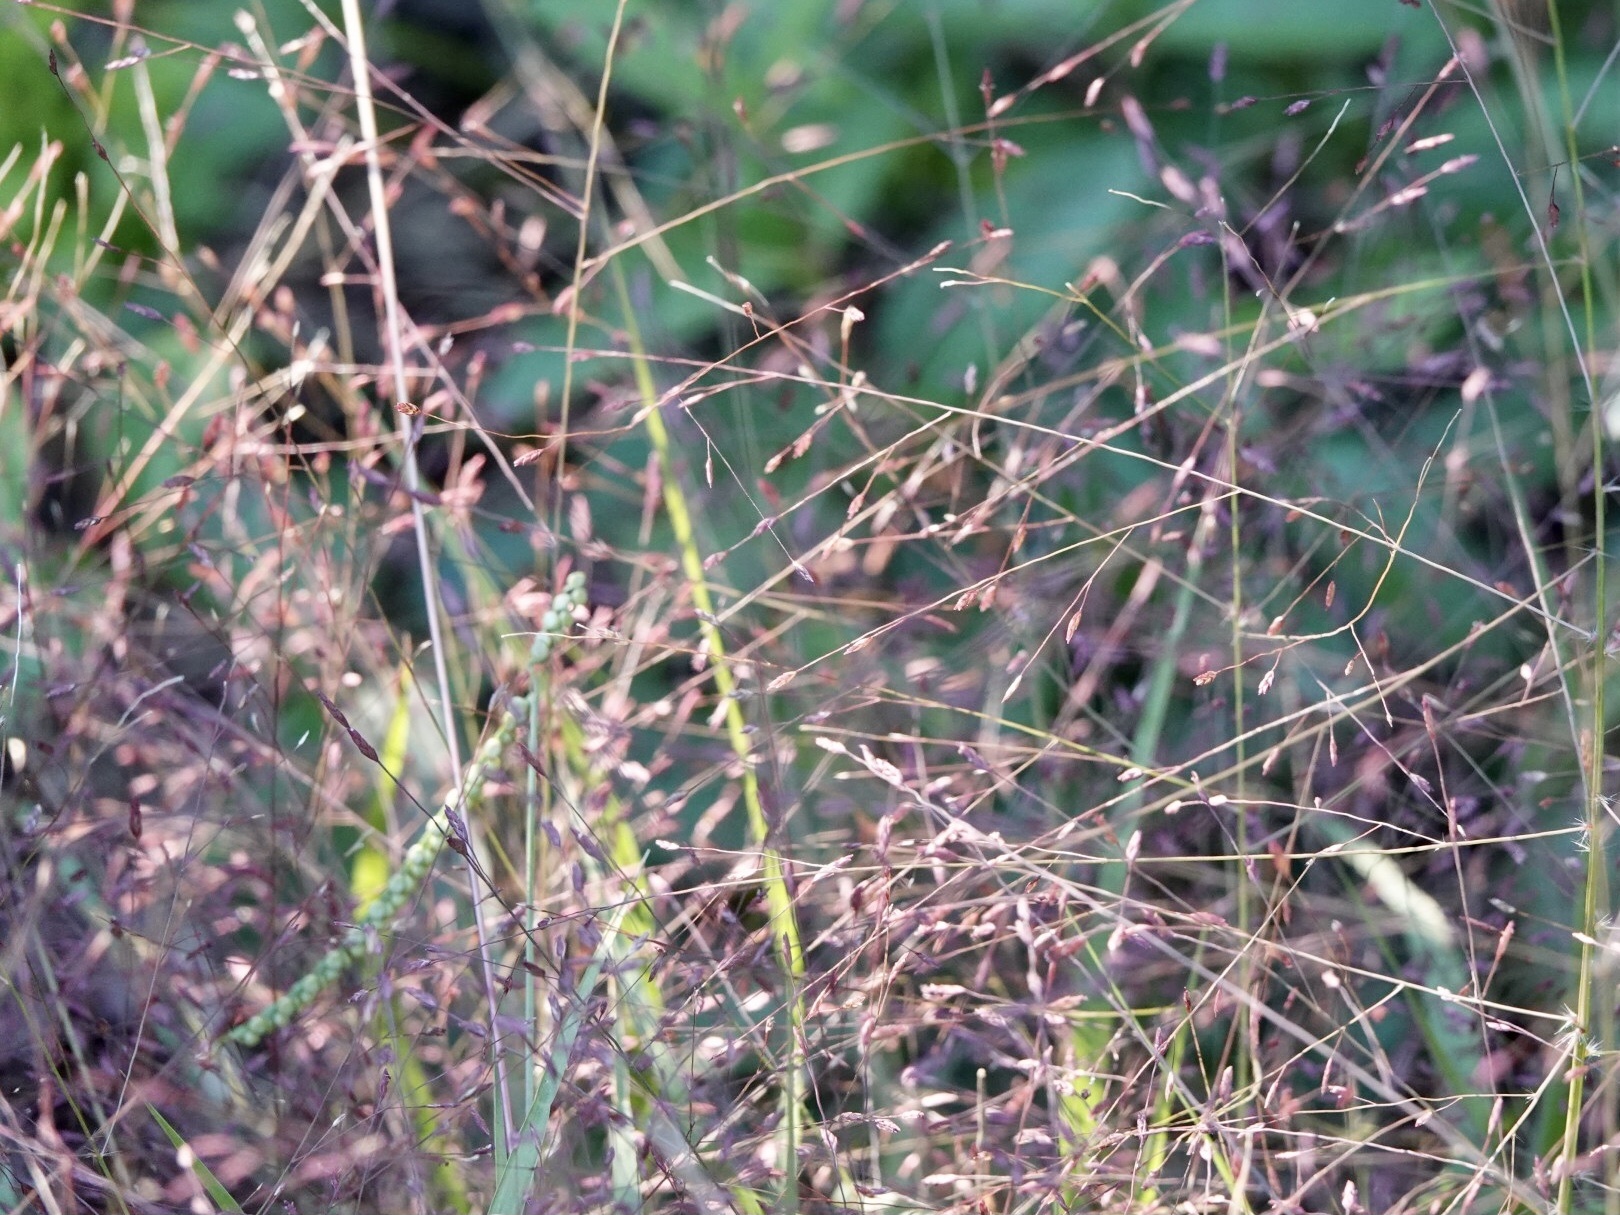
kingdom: Plantae
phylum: Tracheophyta
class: Liliopsida
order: Poales
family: Poaceae
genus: Eragrostis
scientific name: Eragrostis spectabilis
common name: Petticoat-climber
